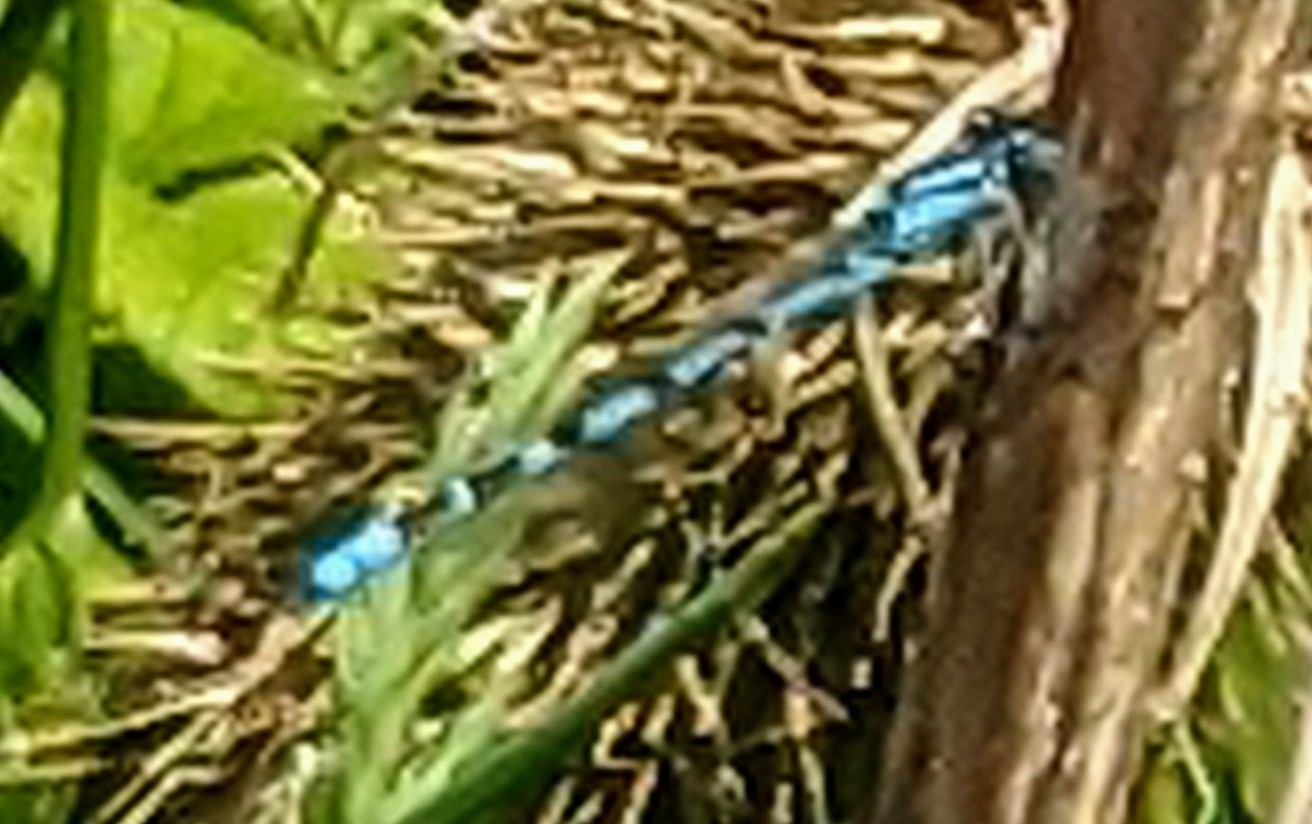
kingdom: Animalia
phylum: Arthropoda
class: Insecta
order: Odonata
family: Coenagrionidae
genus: Enallagma
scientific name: Enallagma cyathigerum
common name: Common blue damselfly
